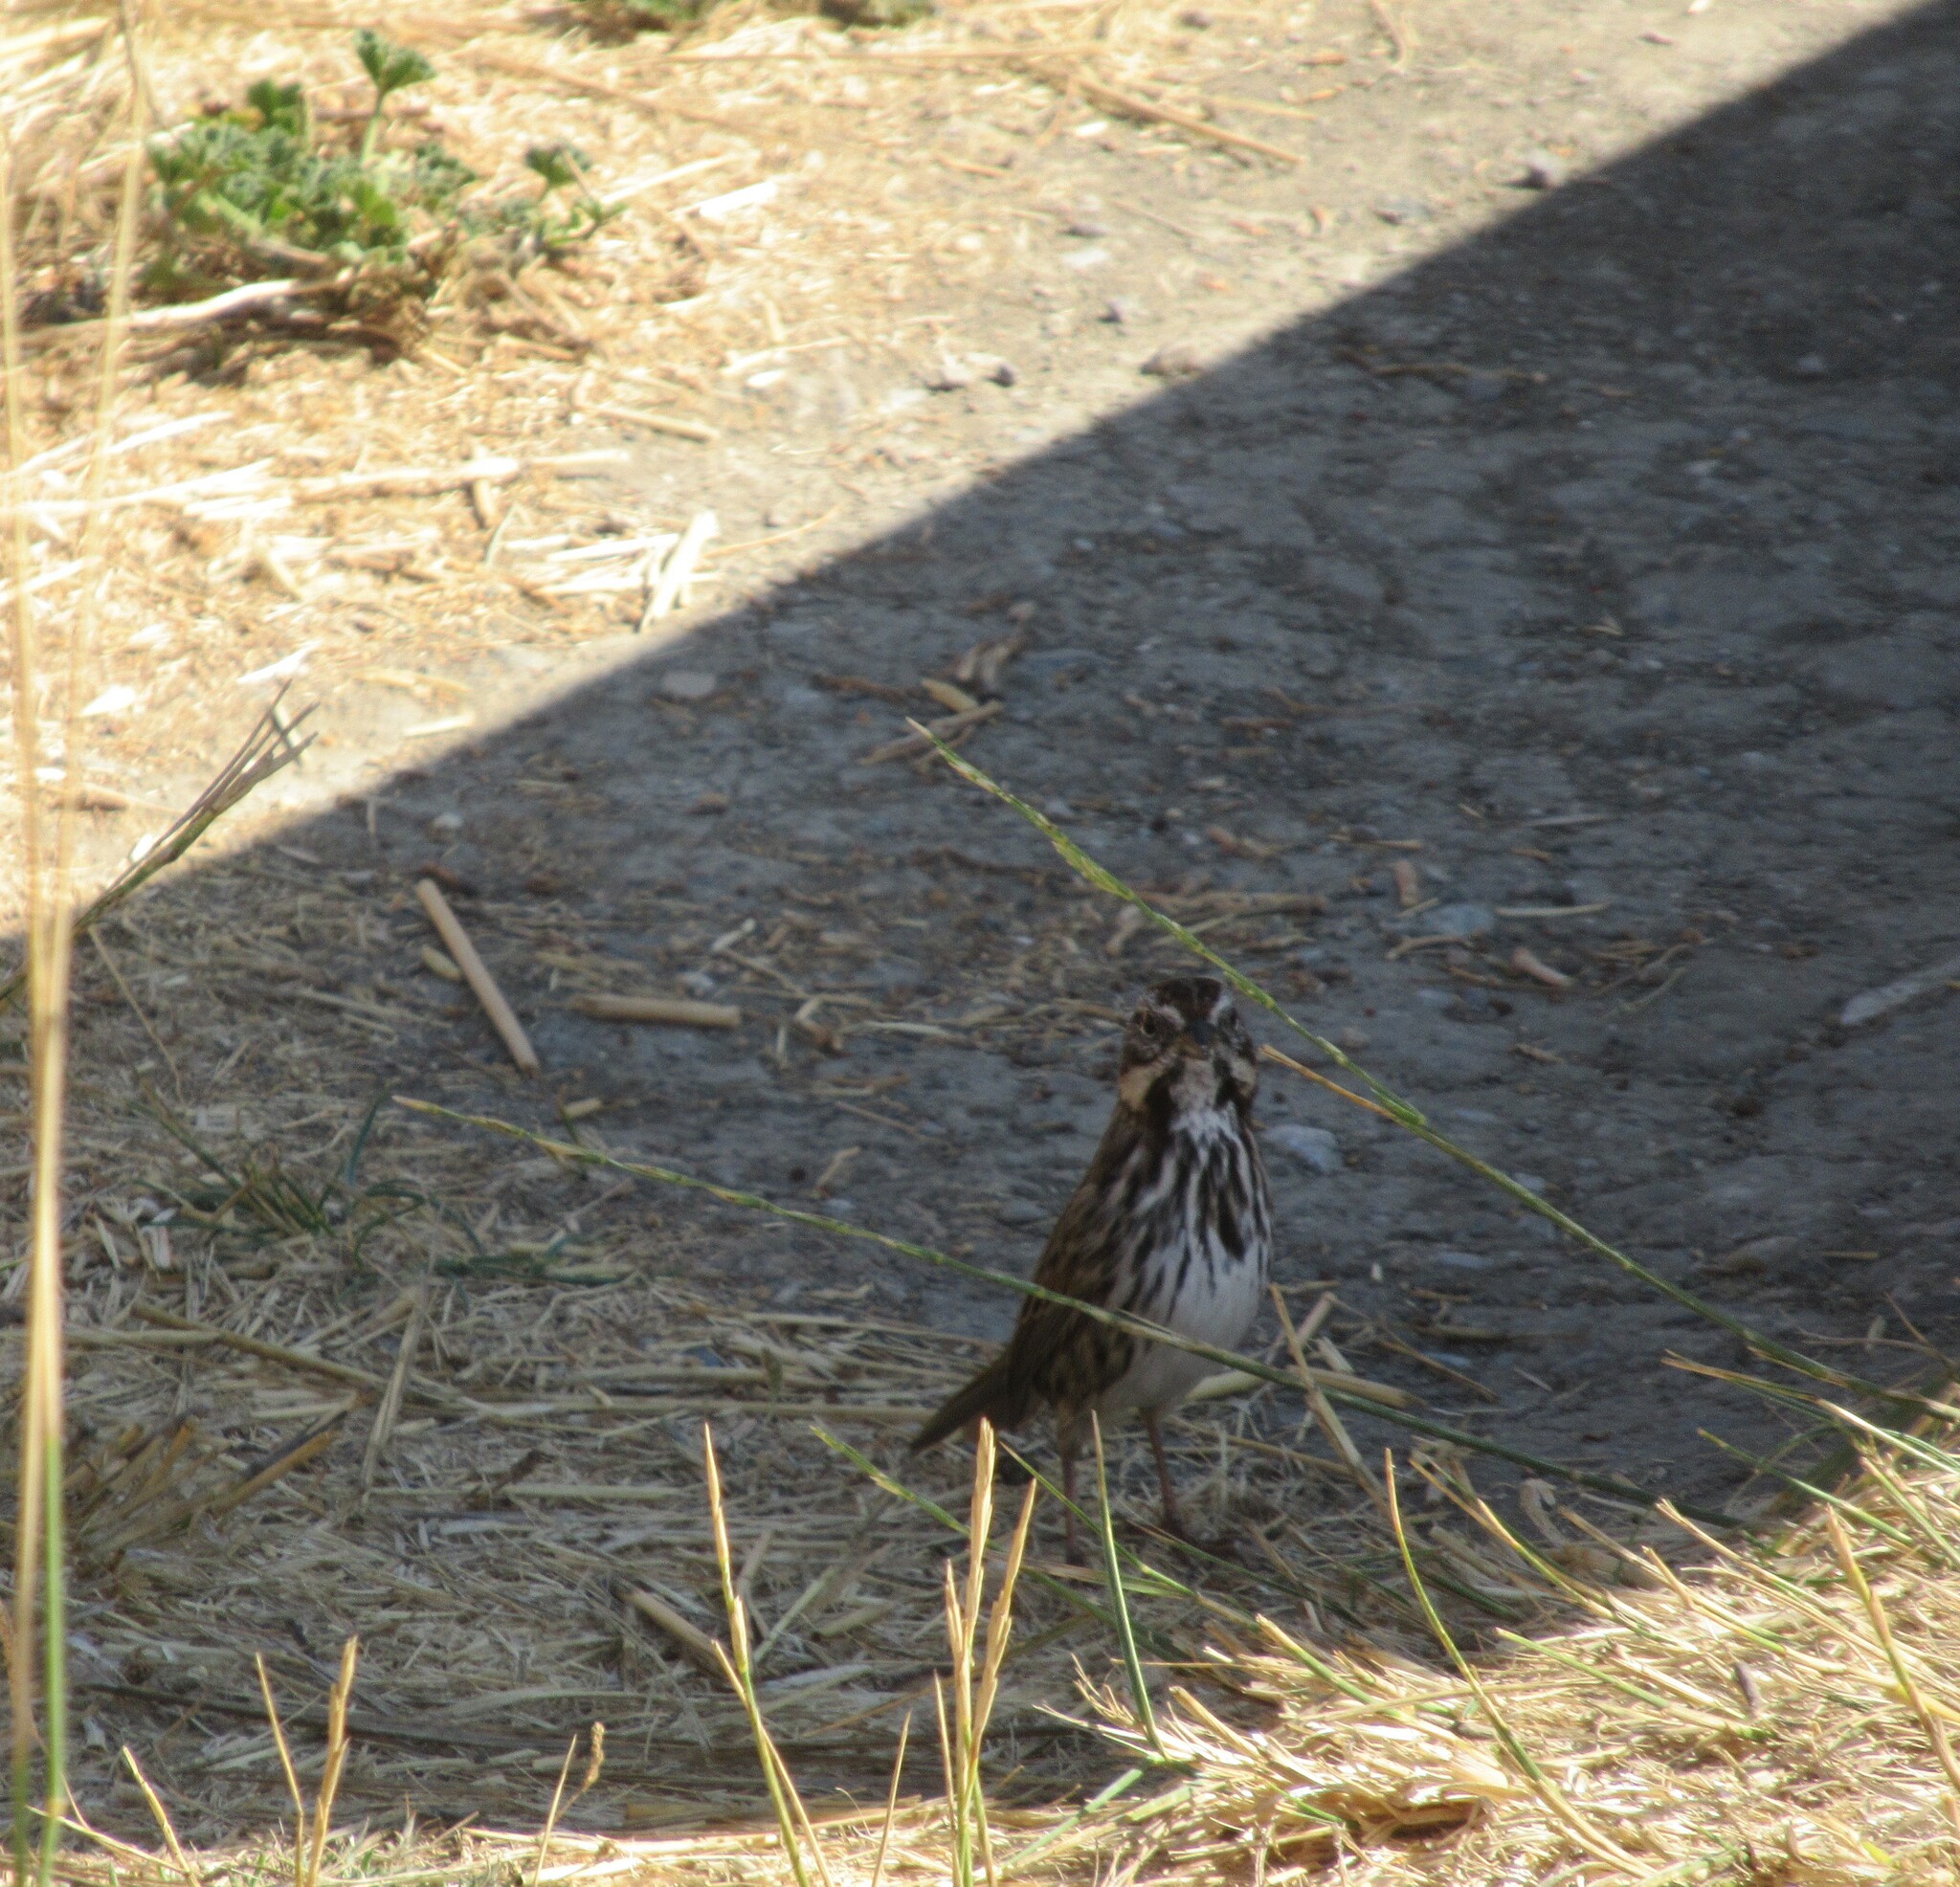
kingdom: Animalia
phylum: Chordata
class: Aves
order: Passeriformes
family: Passerellidae
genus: Melospiza
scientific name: Melospiza melodia
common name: Song sparrow
